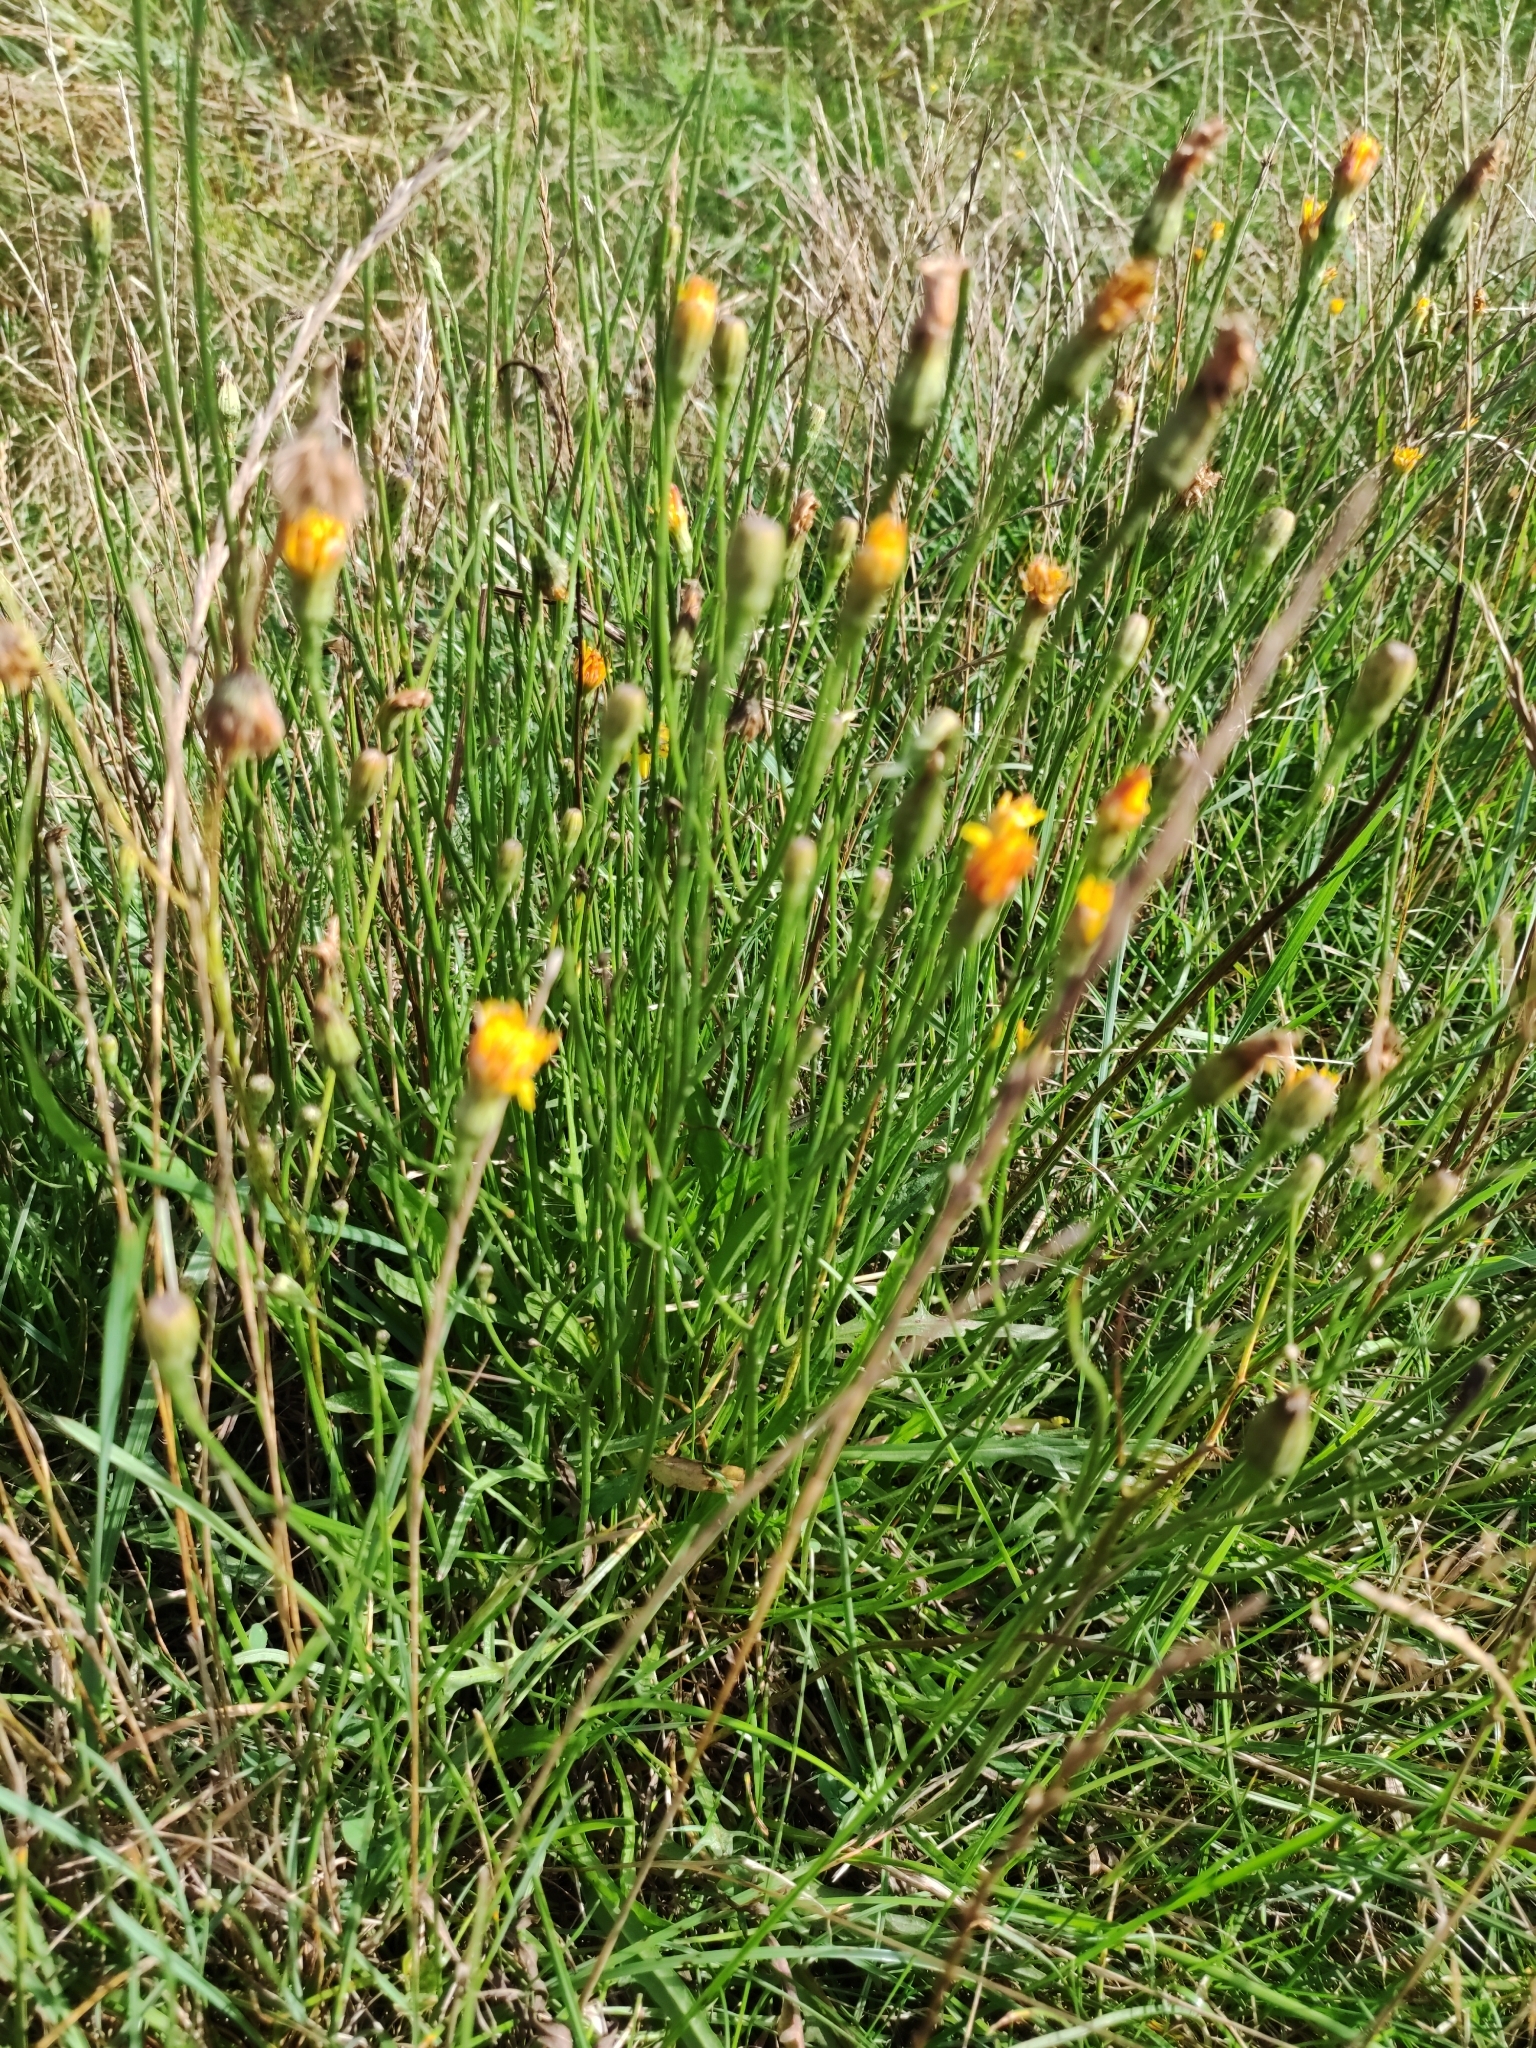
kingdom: Plantae
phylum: Tracheophyta
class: Magnoliopsida
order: Asterales
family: Asteraceae
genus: Scorzoneroides
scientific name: Scorzoneroides autumnalis
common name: Autumn hawkbit
